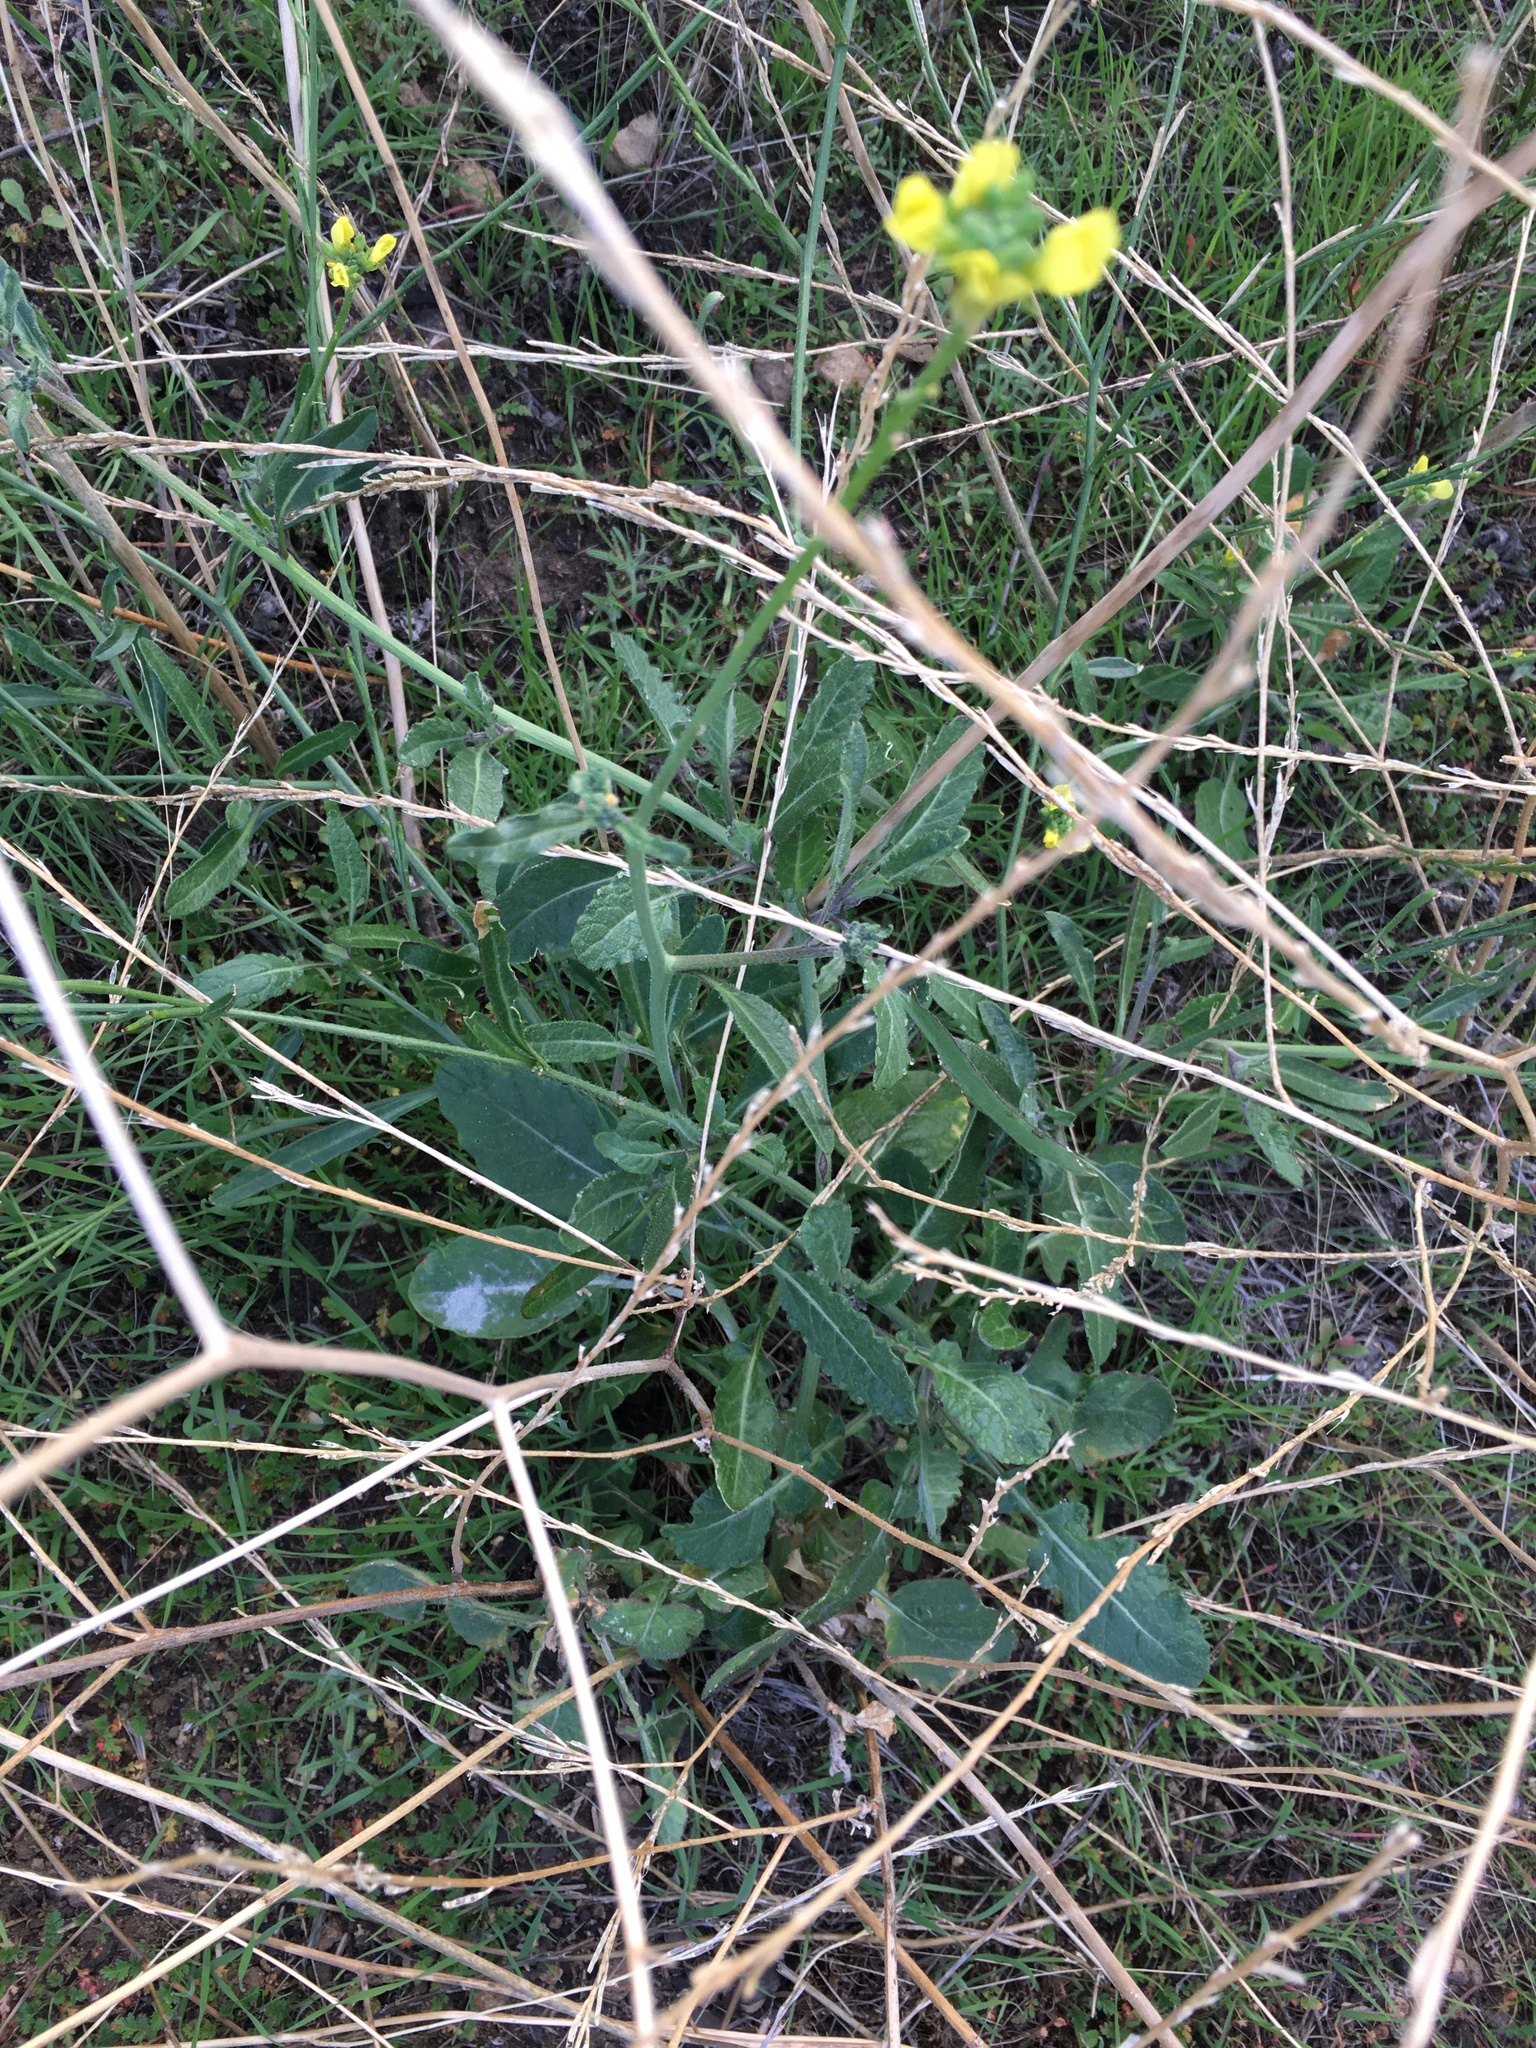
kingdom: Plantae
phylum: Tracheophyta
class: Magnoliopsida
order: Brassicales
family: Brassicaceae
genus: Hirschfeldia
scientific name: Hirschfeldia incana
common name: Hoary mustard
